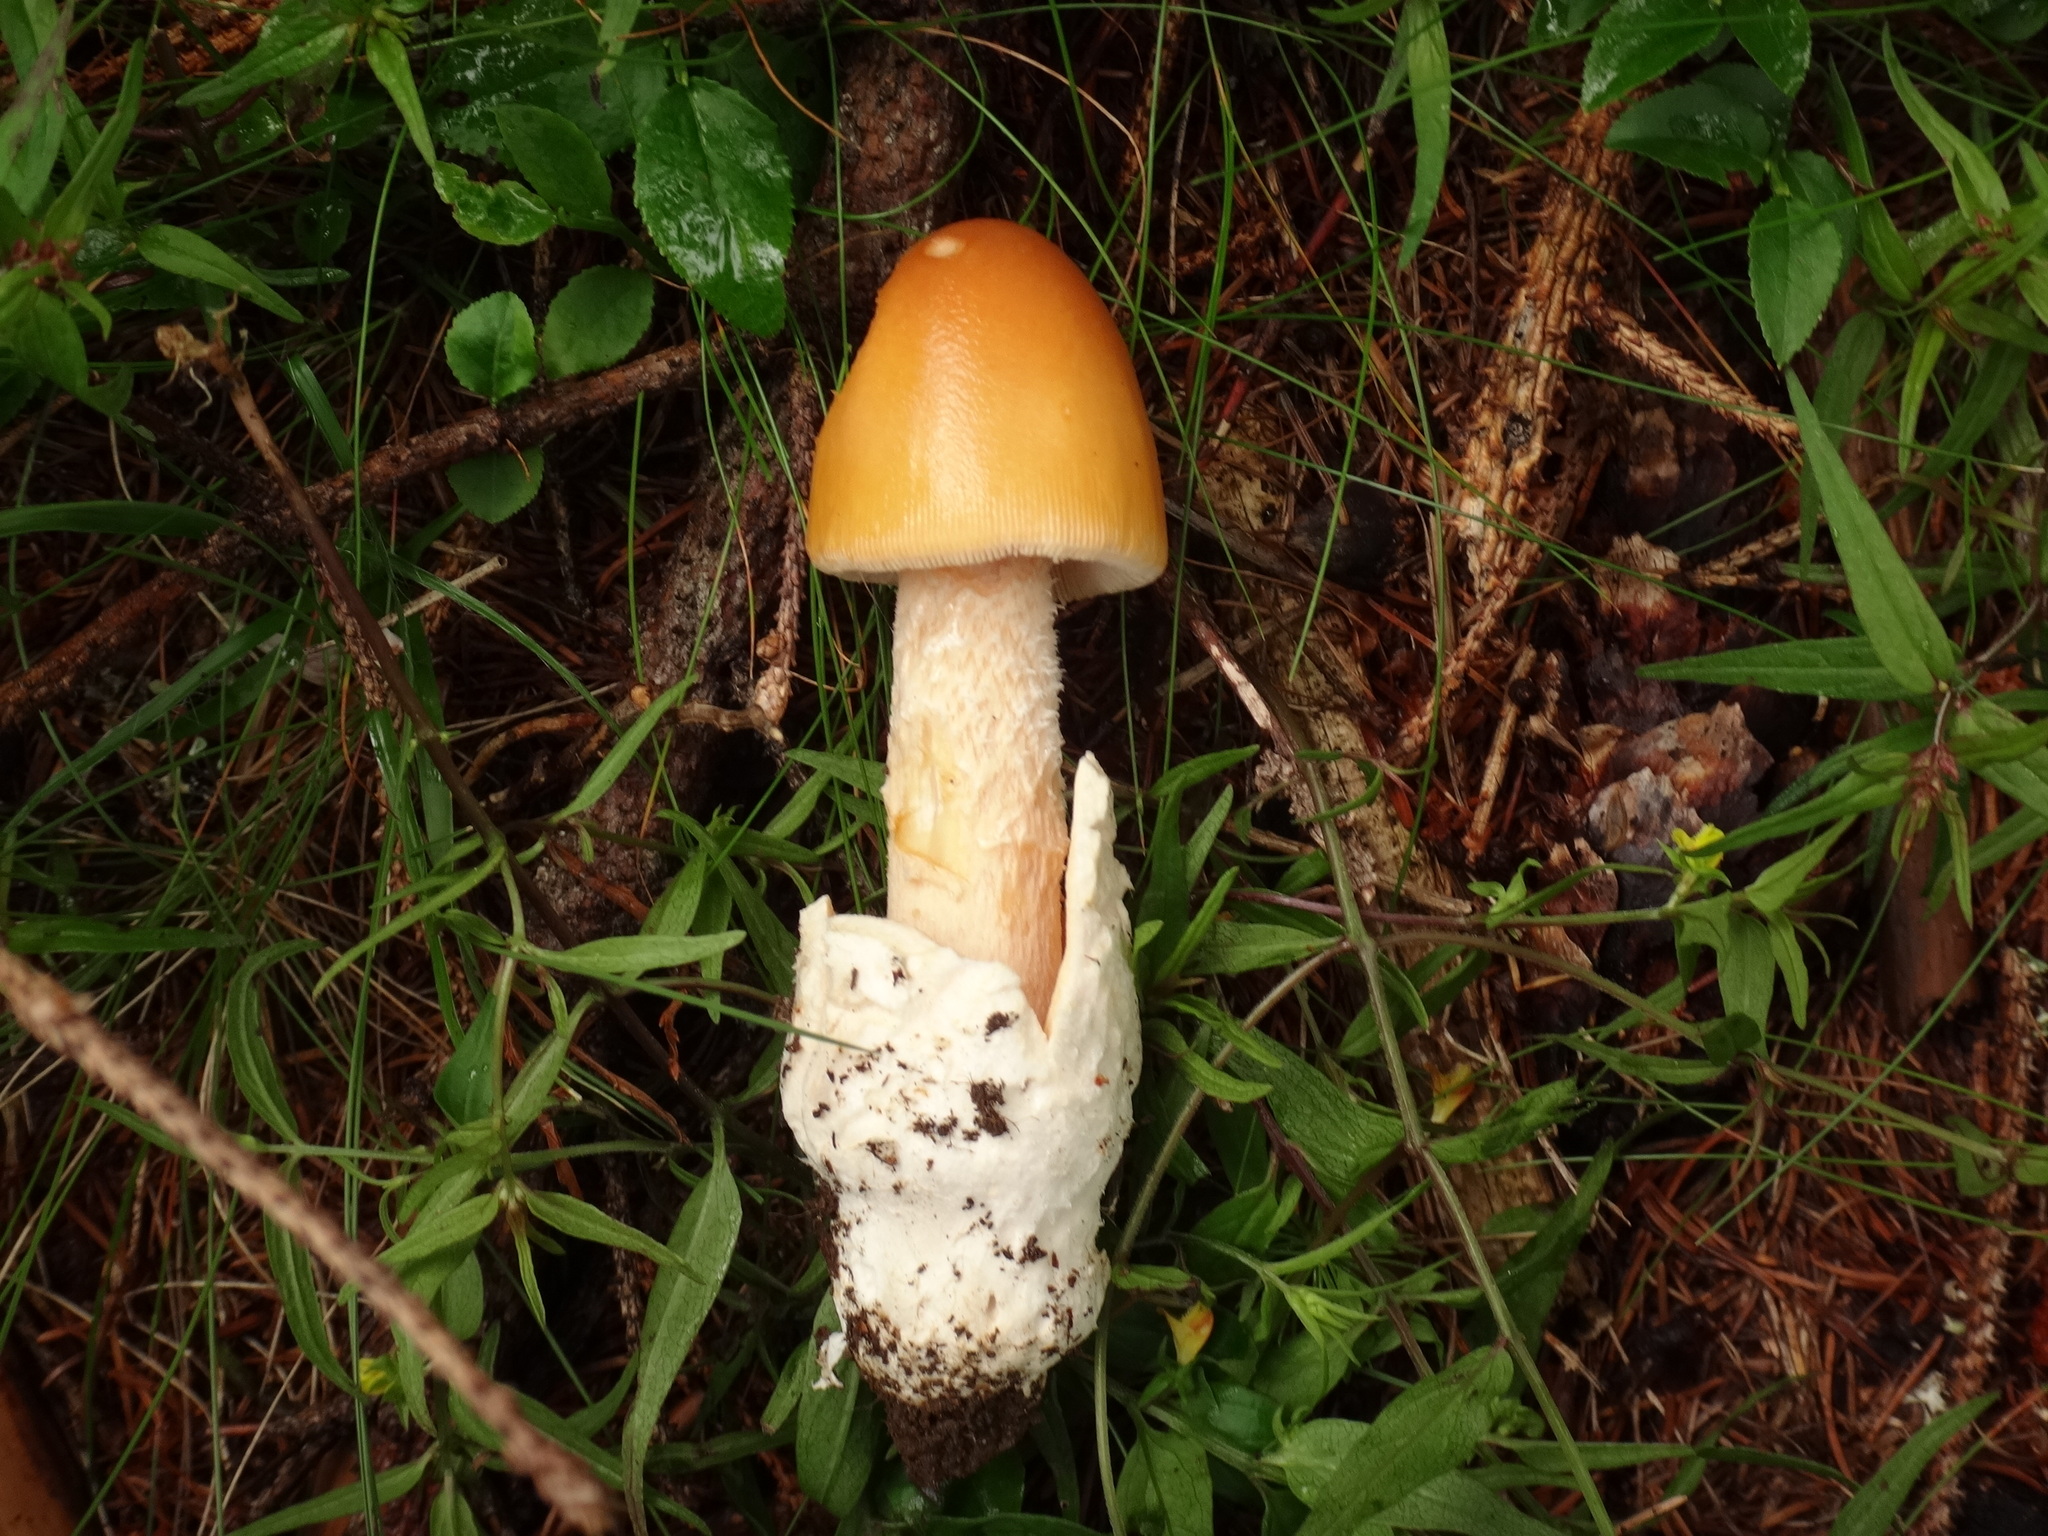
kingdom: Fungi
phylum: Basidiomycota
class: Agaricomycetes
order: Agaricales
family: Amanitaceae
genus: Amanita
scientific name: Amanita crocea
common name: Orange grisette
